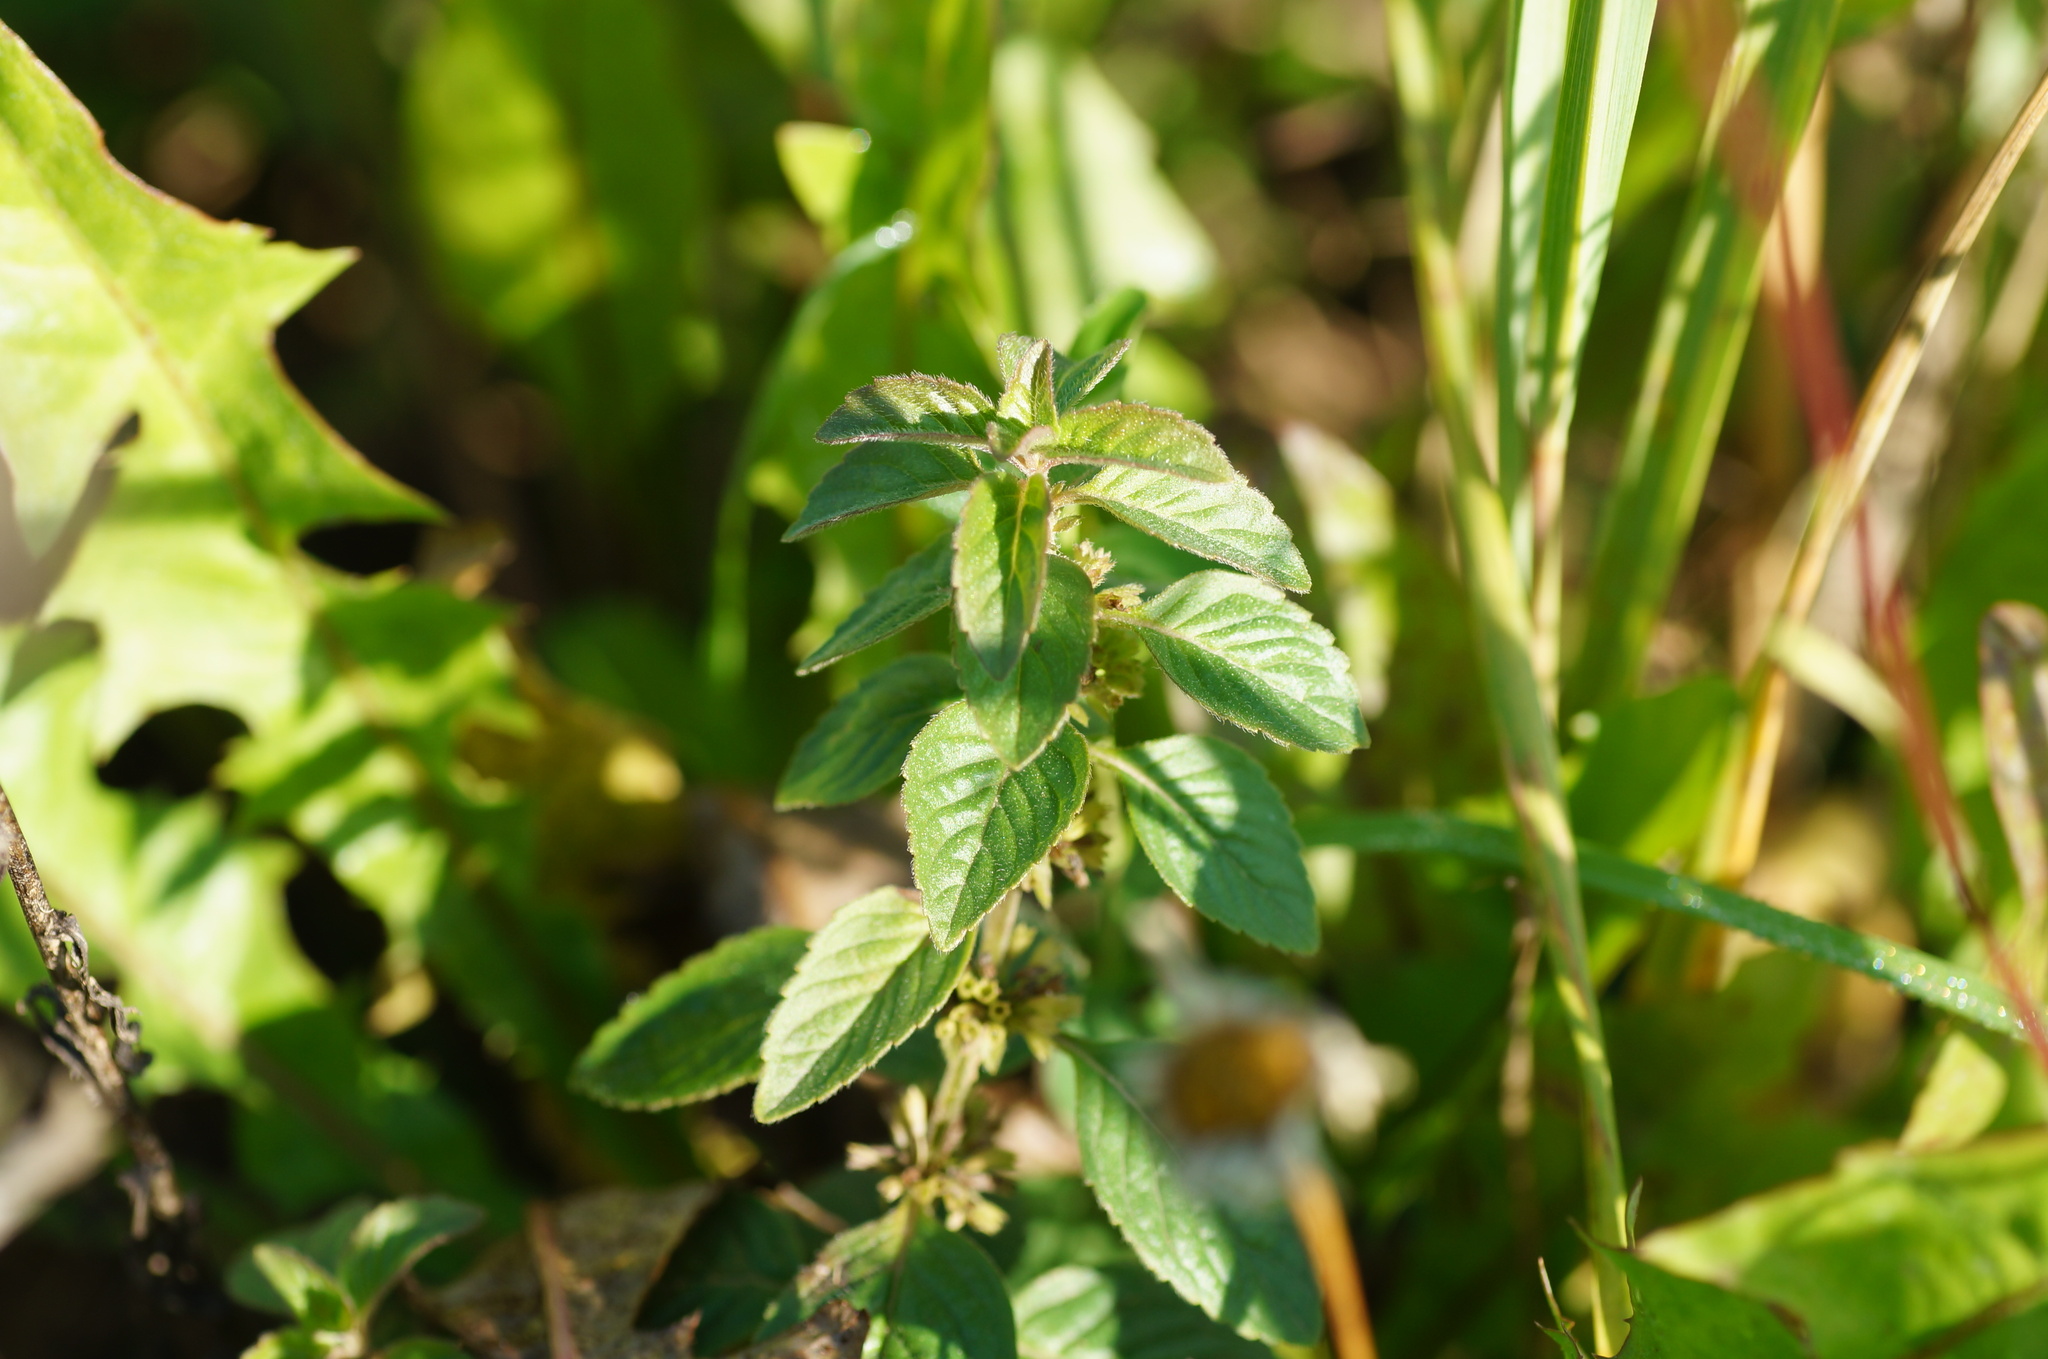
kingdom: Plantae
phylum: Tracheophyta
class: Magnoliopsida
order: Lamiales
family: Lamiaceae
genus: Mentha
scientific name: Mentha arvensis
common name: Corn mint
